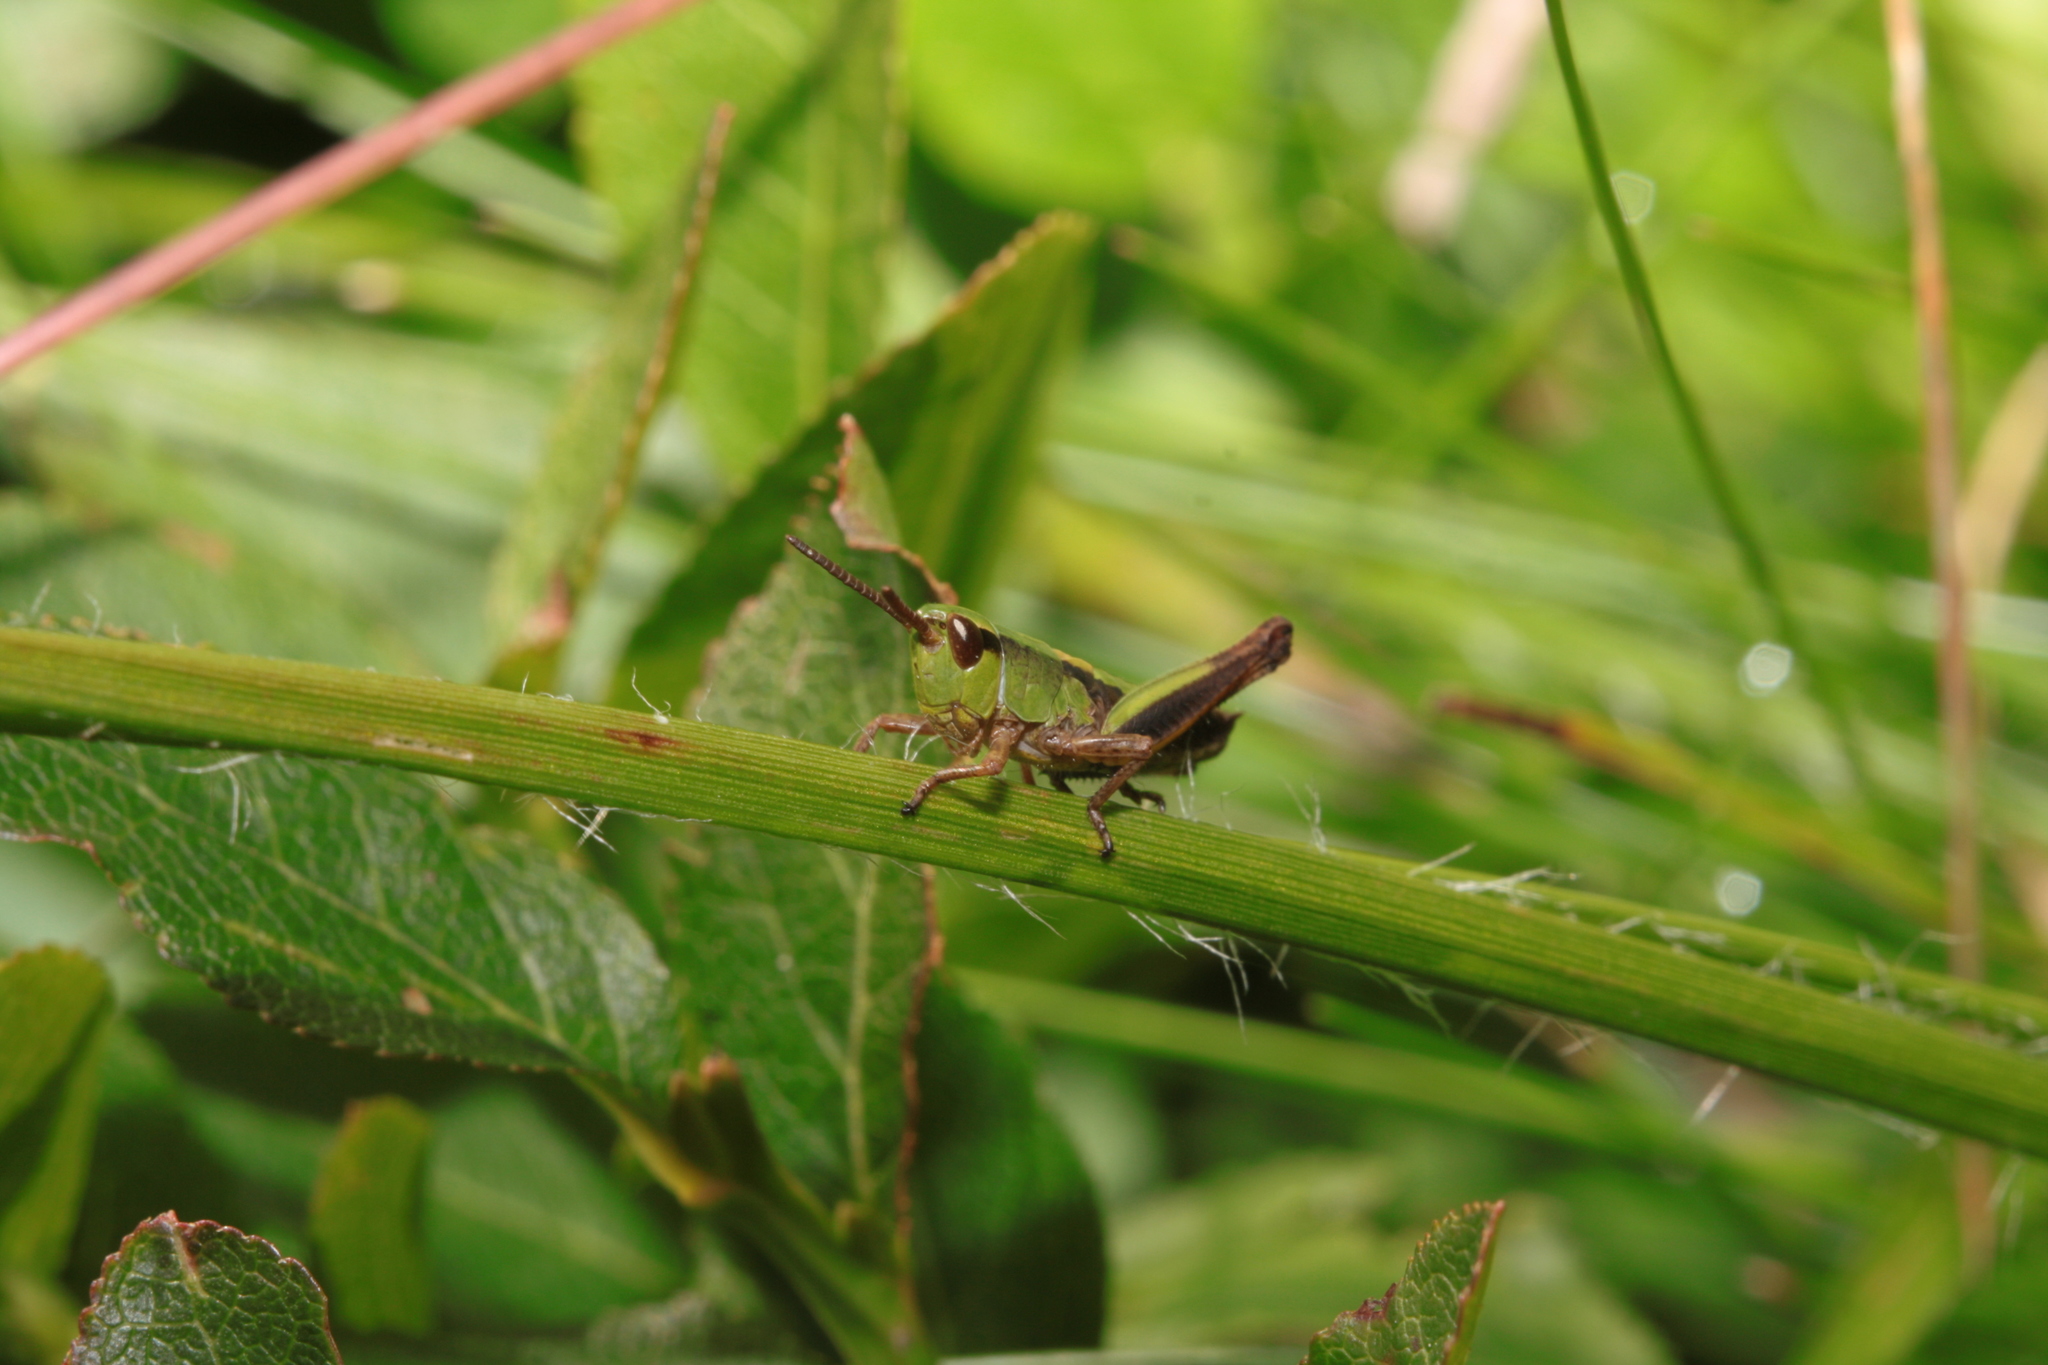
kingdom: Animalia
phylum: Arthropoda
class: Insecta
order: Orthoptera
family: Acrididae
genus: Pseudochorthippus
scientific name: Pseudochorthippus parallelus
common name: Meadow grasshopper
